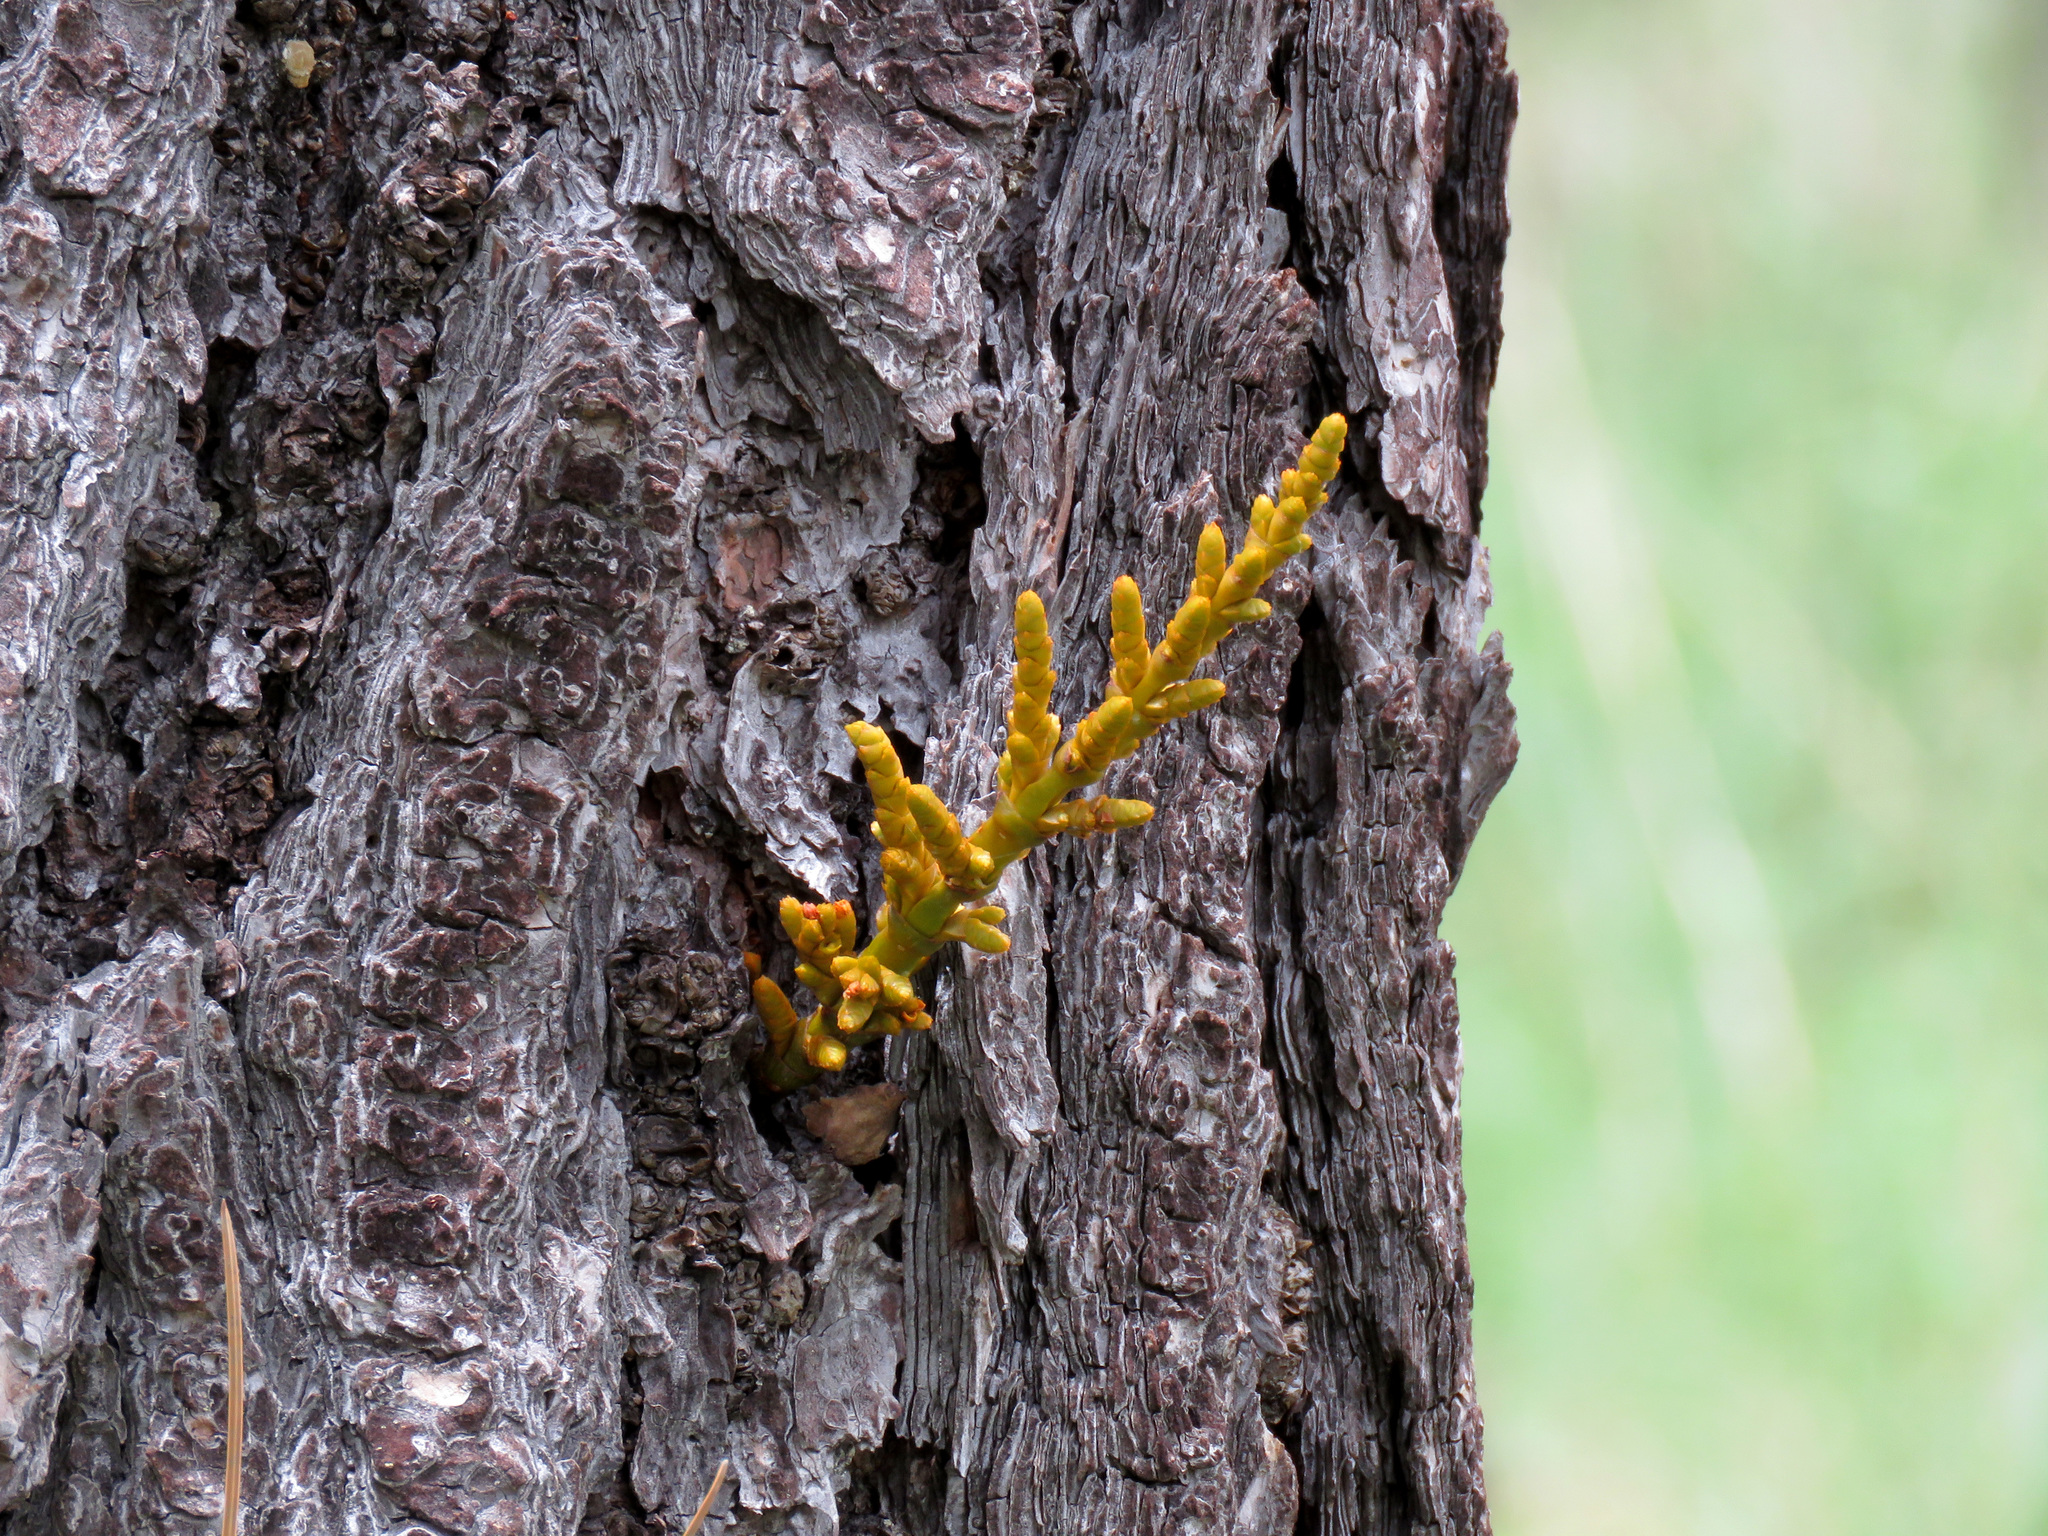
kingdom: Plantae
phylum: Tracheophyta
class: Magnoliopsida
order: Santalales
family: Viscaceae
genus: Arceuthobium
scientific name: Arceuthobium vaginatum
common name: Southwestern dwarf-mistletoe
